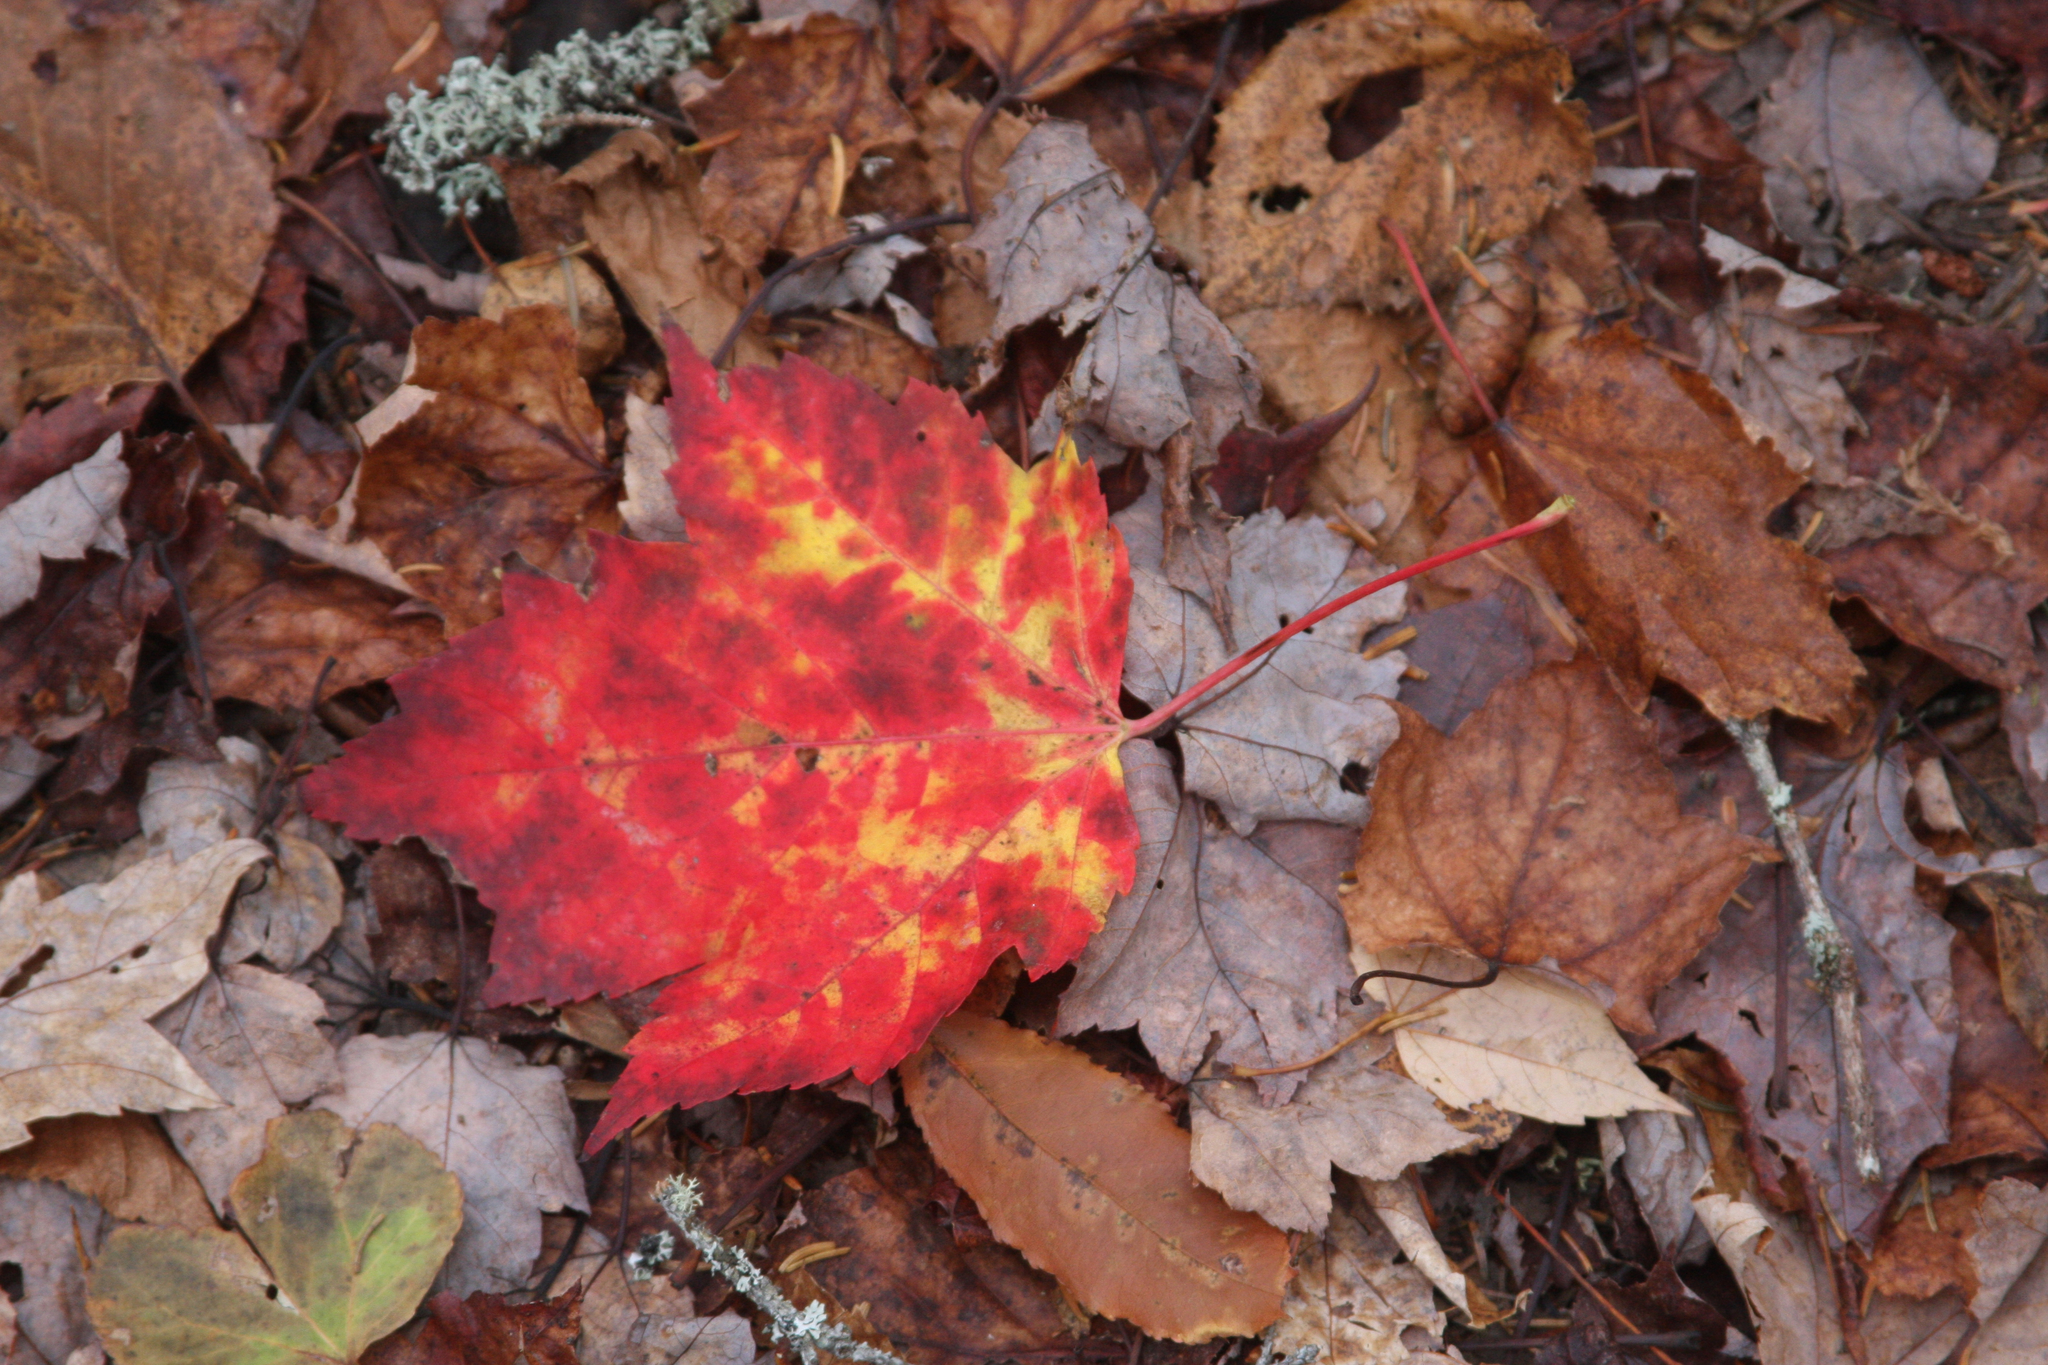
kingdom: Plantae
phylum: Tracheophyta
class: Magnoliopsida
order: Sapindales
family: Sapindaceae
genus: Acer
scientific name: Acer rubrum
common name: Red maple
